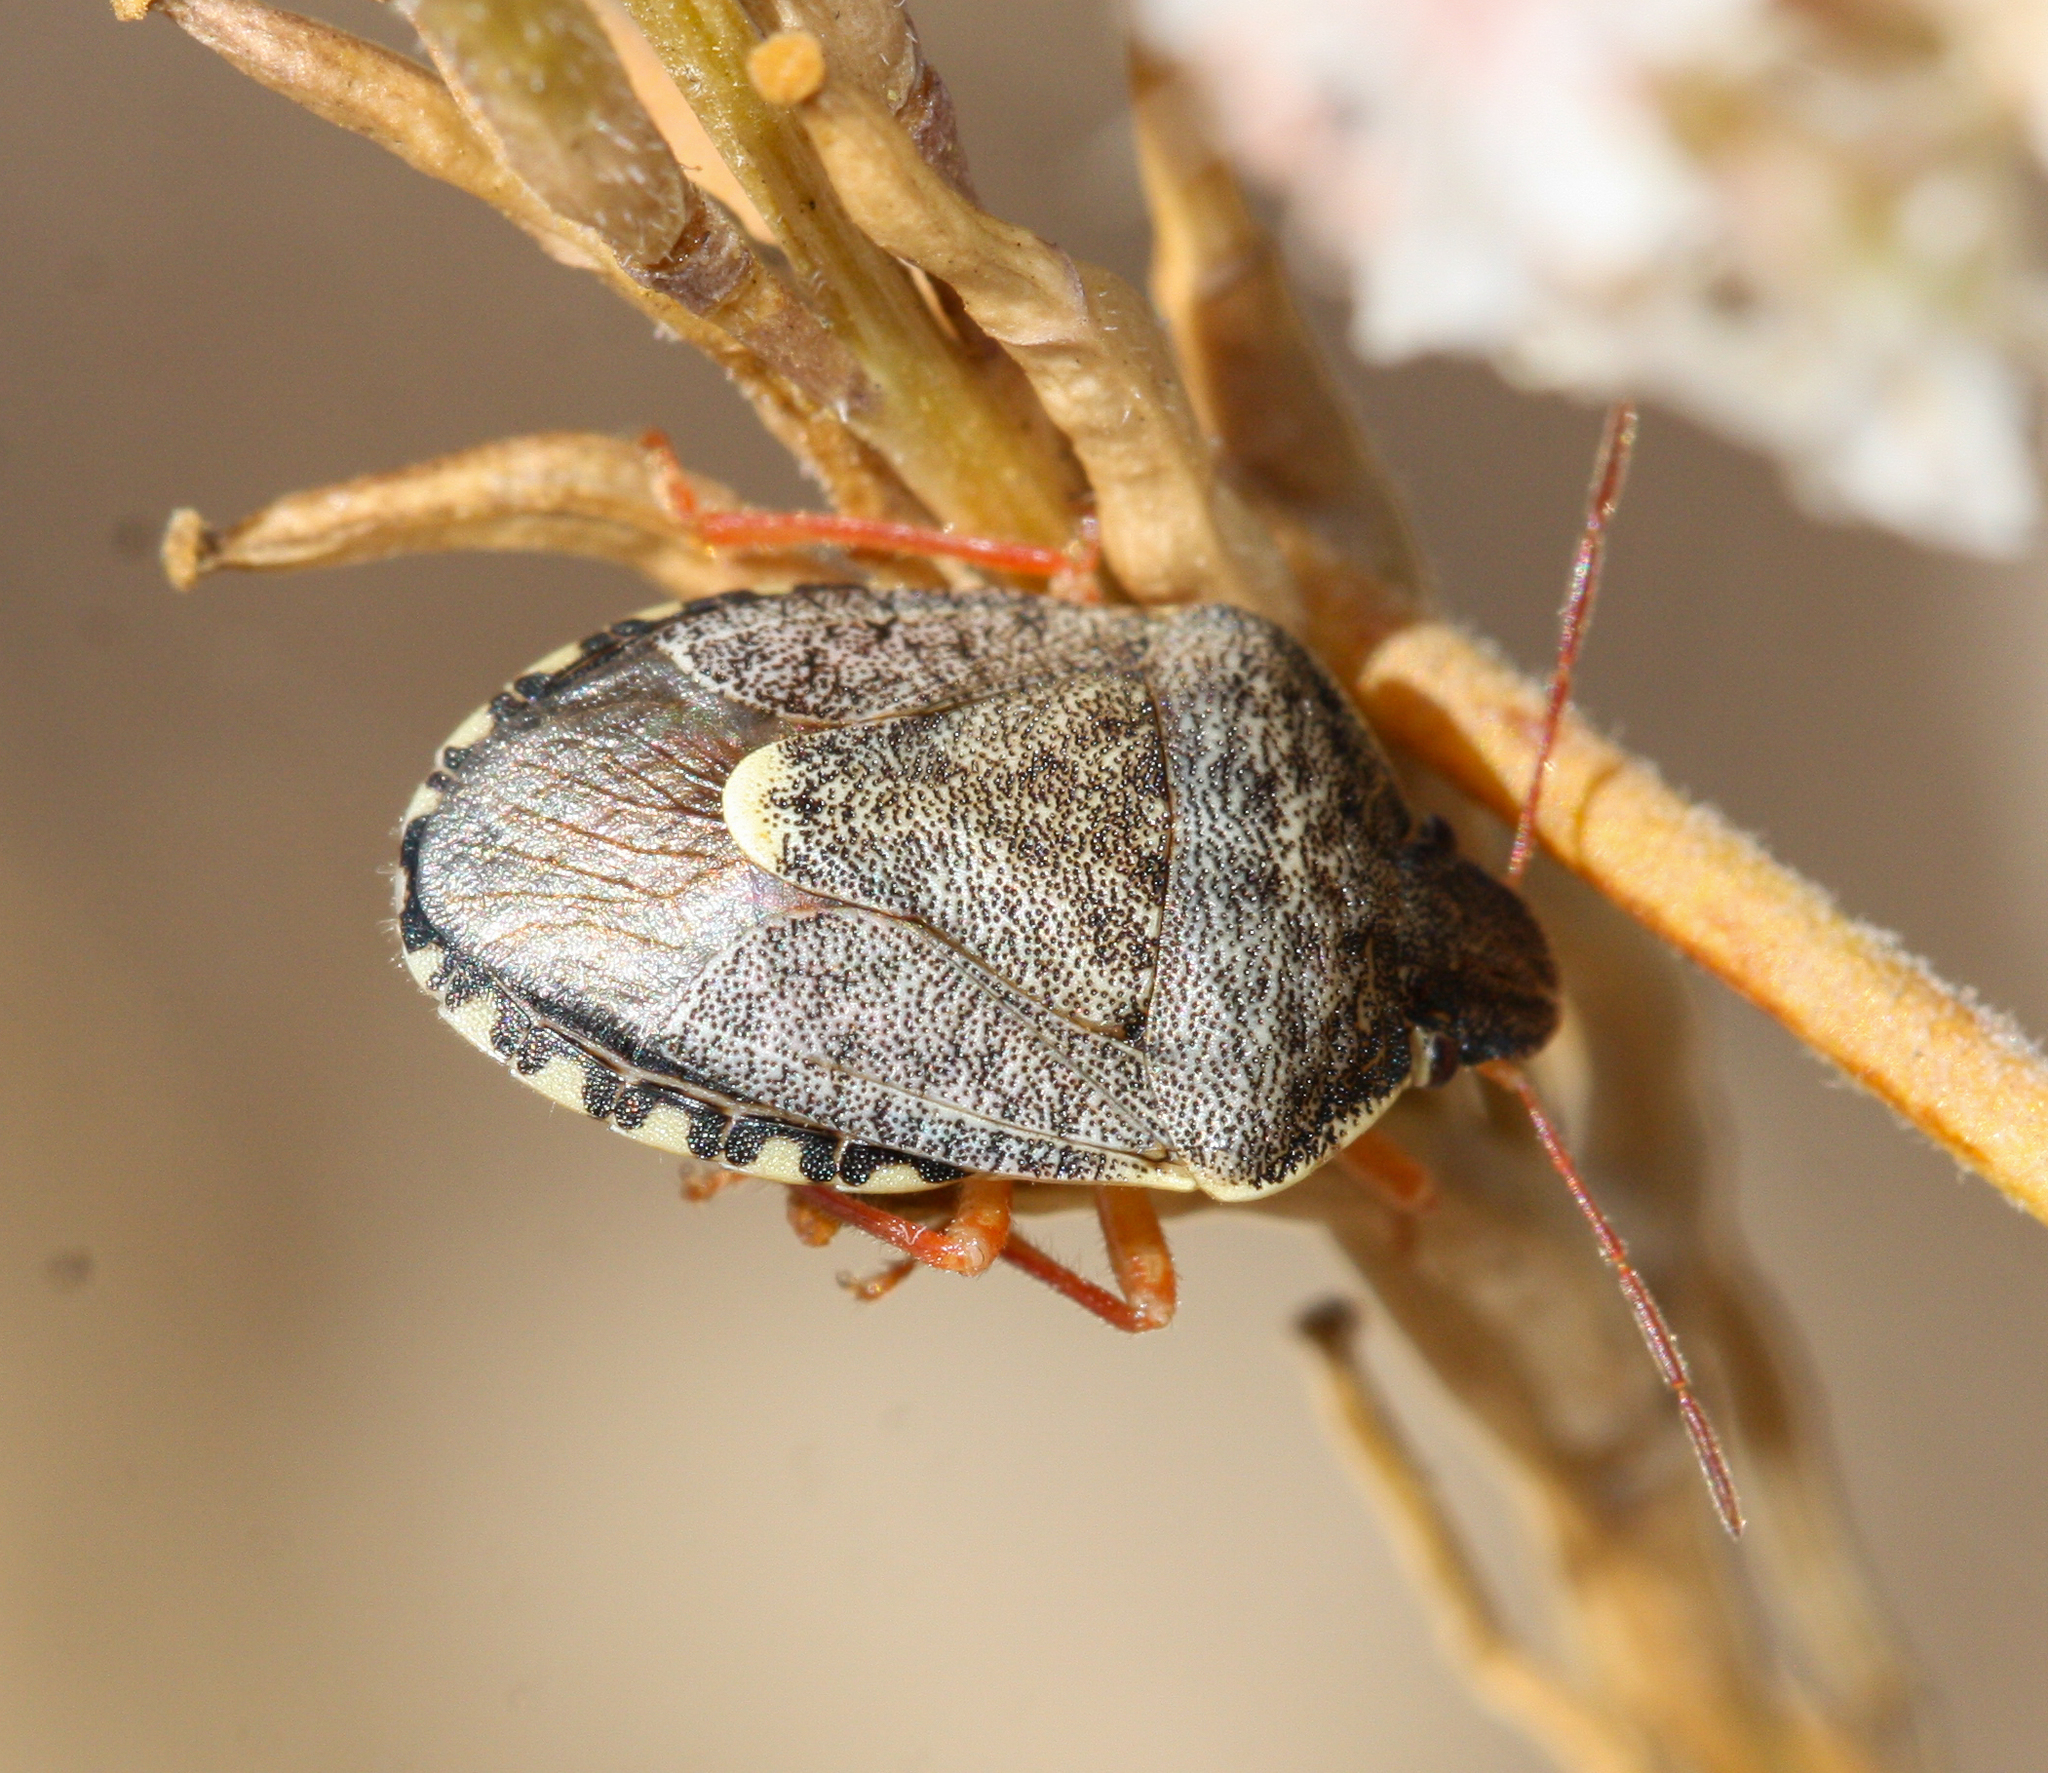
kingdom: Animalia
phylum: Arthropoda
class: Insecta
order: Hemiptera
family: Pentatomidae
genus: Holcostethus
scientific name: Holcostethus abbreviatus
